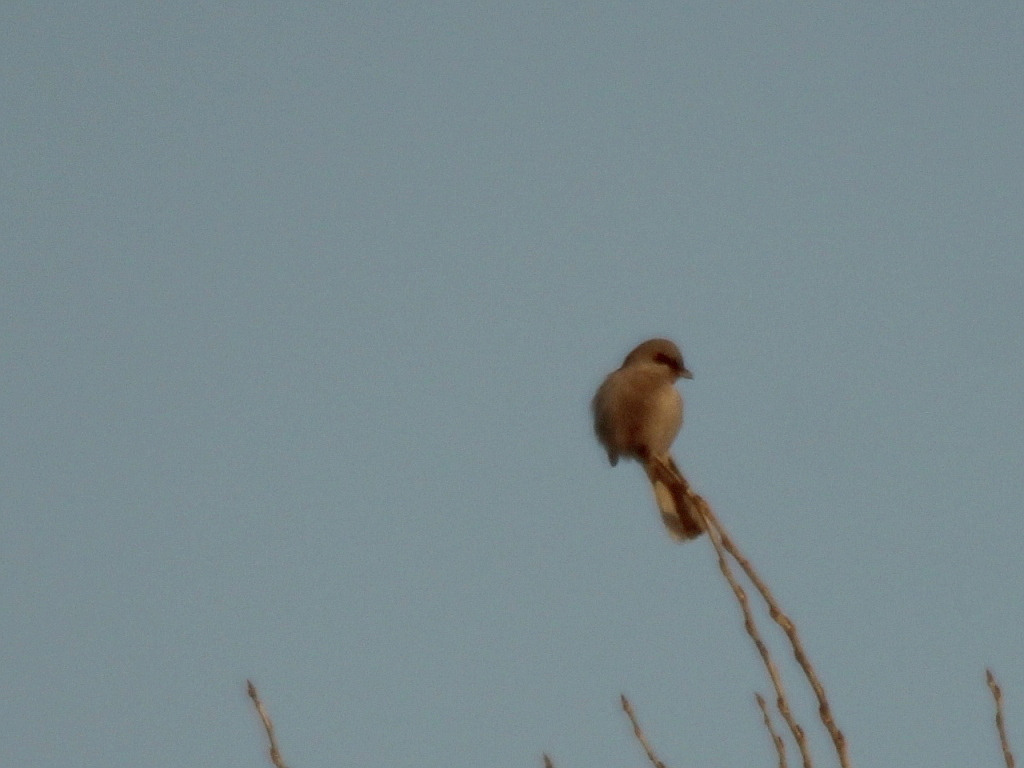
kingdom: Animalia
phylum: Chordata
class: Aves
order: Passeriformes
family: Laniidae
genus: Lanius
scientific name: Lanius borealis
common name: Northern shrike
